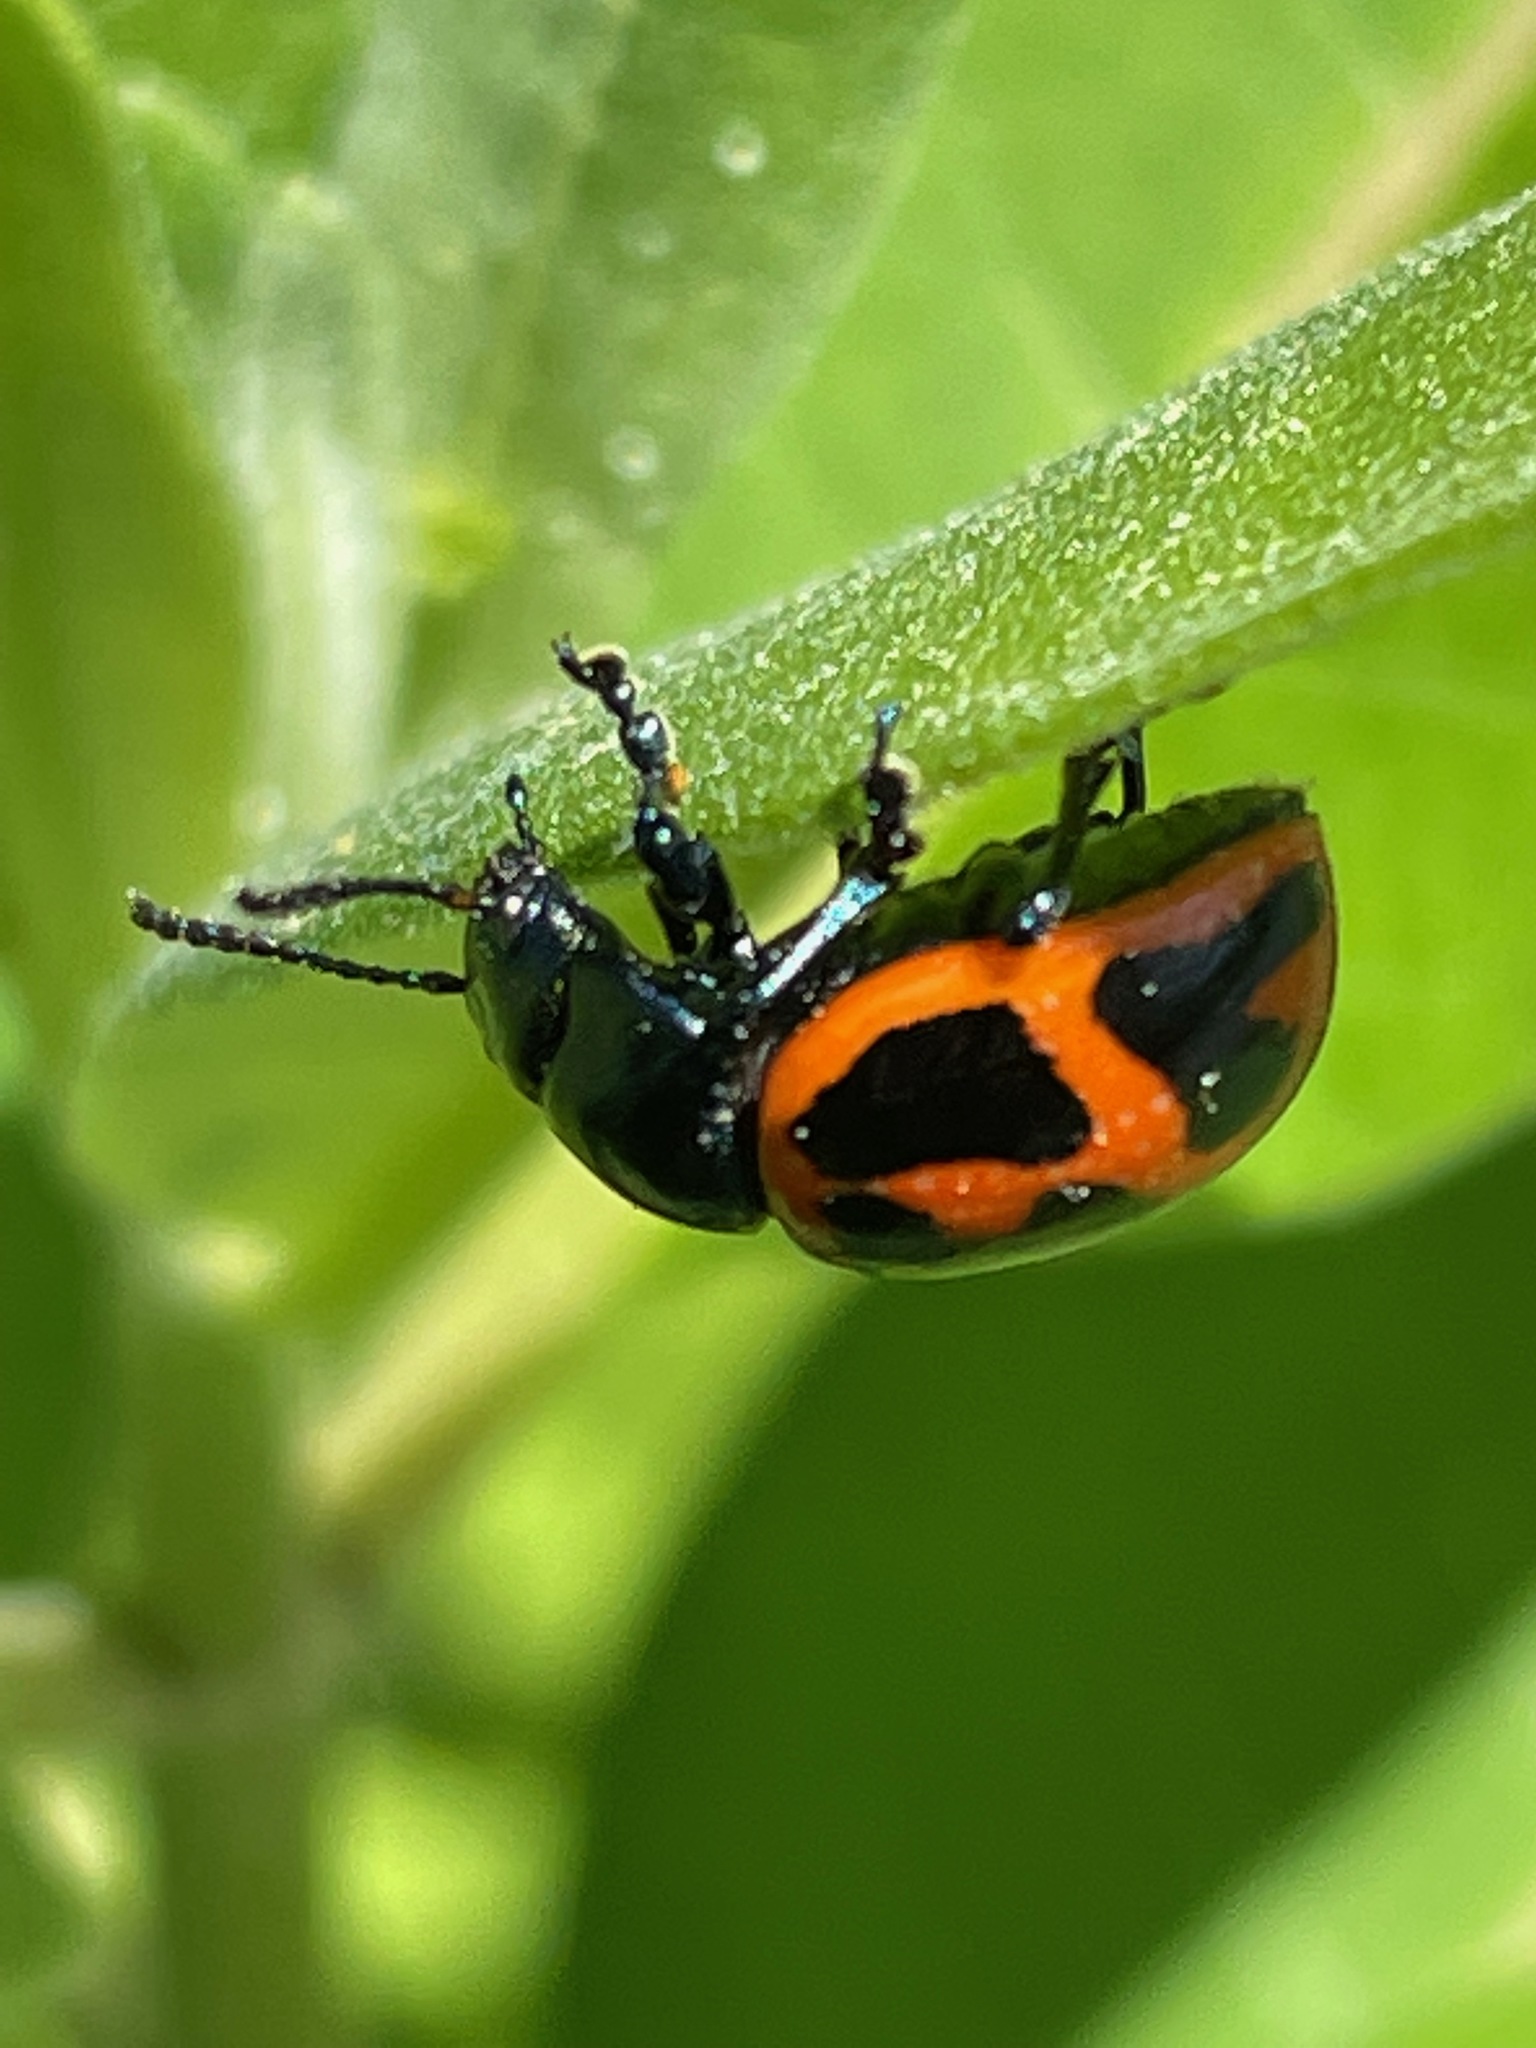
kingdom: Animalia
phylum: Arthropoda
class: Insecta
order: Coleoptera
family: Chrysomelidae
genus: Labidomera
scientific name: Labidomera clivicollis
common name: Swamp milkweed leaf beetle
